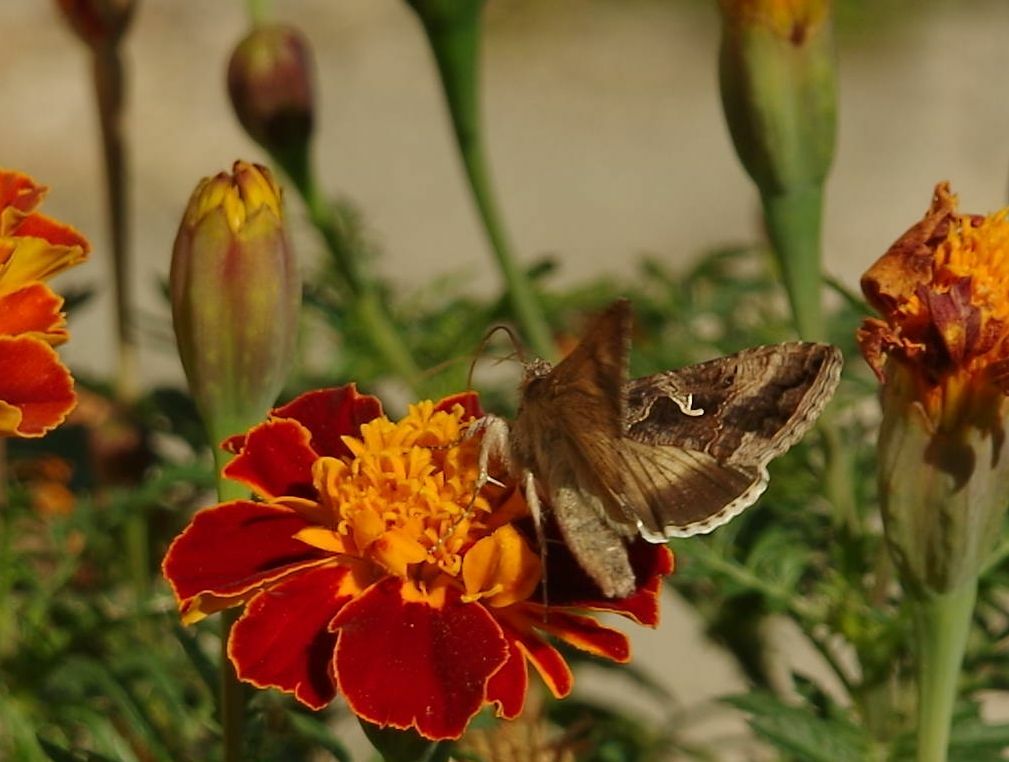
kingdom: Animalia
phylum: Arthropoda
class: Insecta
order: Lepidoptera
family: Noctuidae
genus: Autographa
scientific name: Autographa gamma
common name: Silver y
